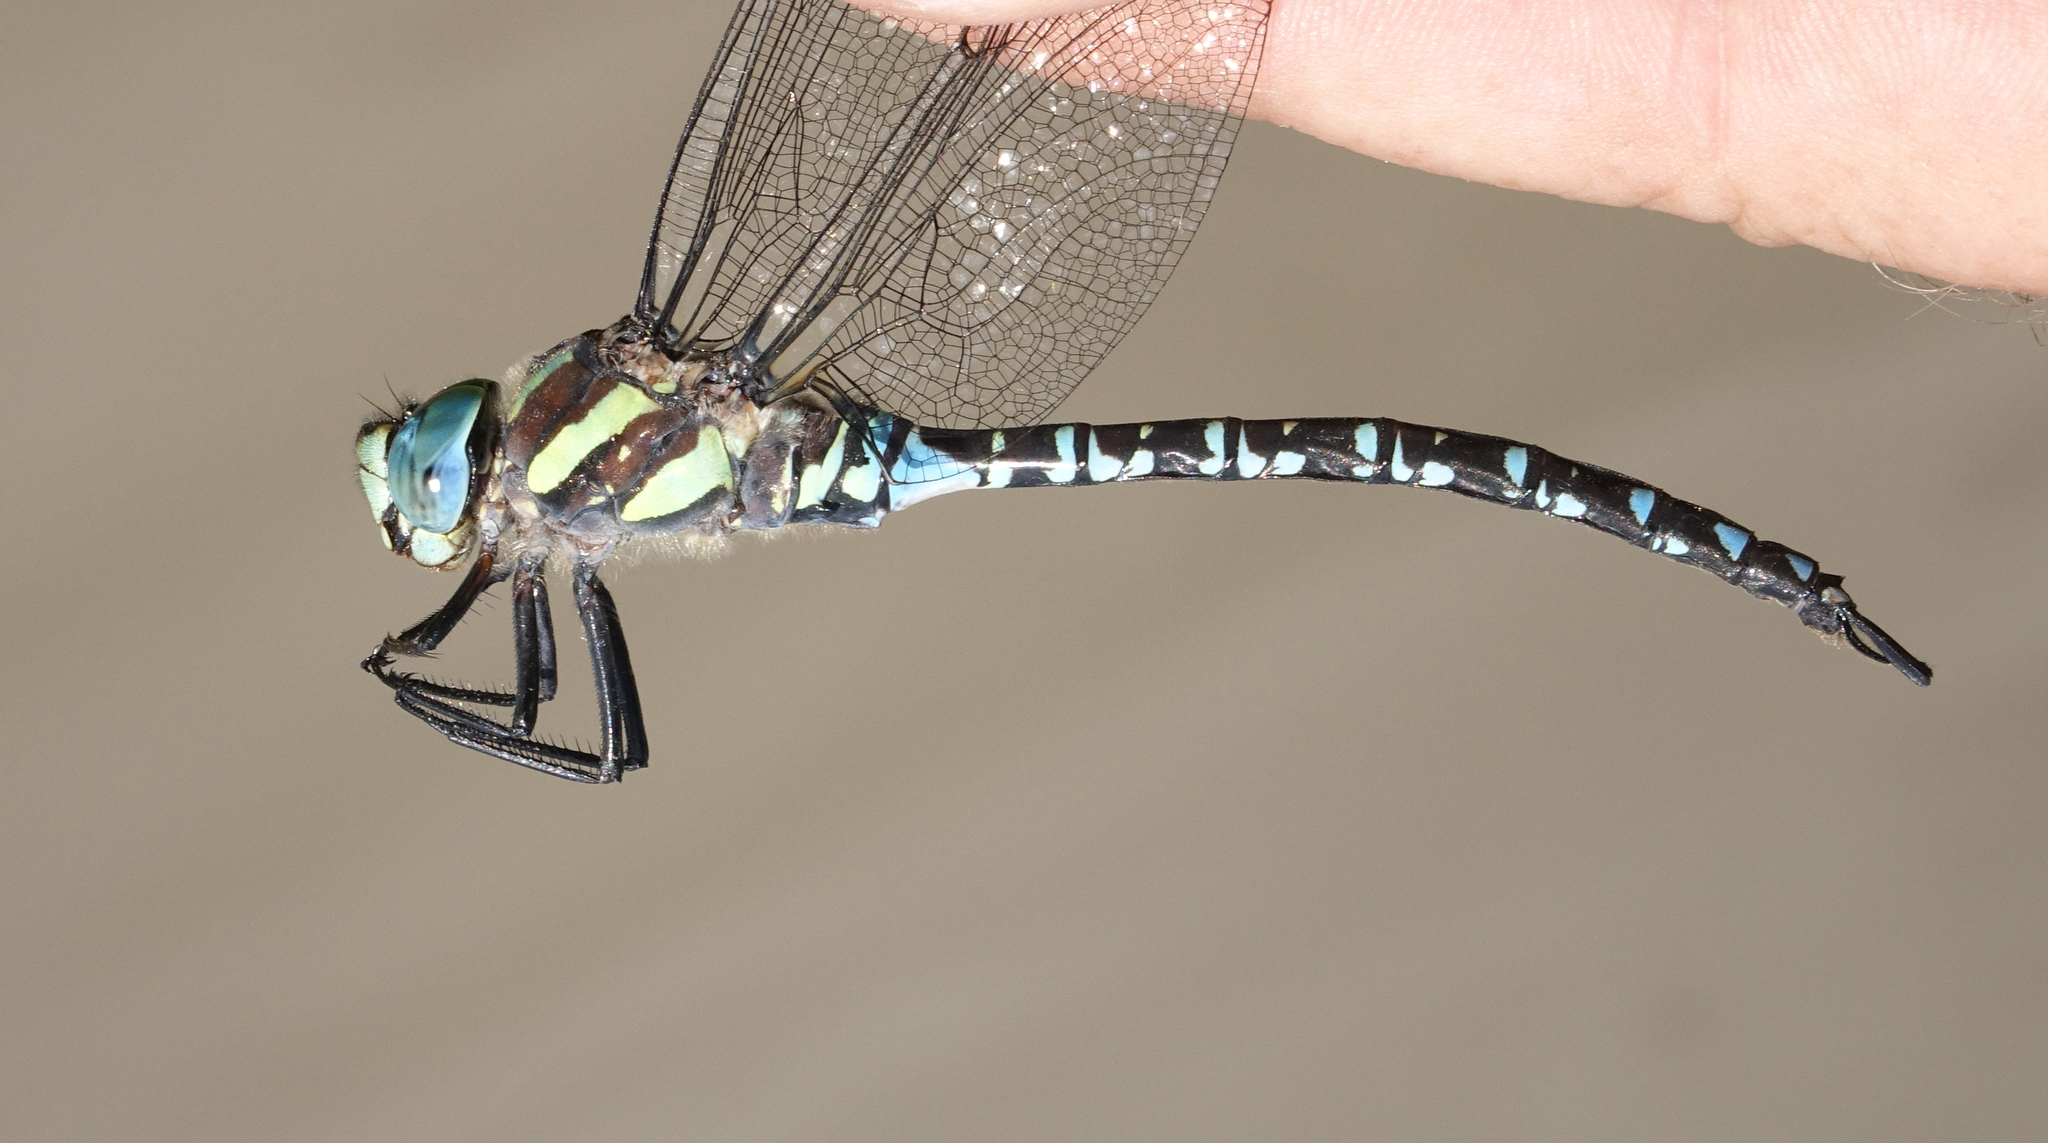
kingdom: Animalia
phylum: Arthropoda
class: Insecta
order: Odonata
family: Aeshnidae
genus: Aeshna
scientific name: Aeshna crenata
